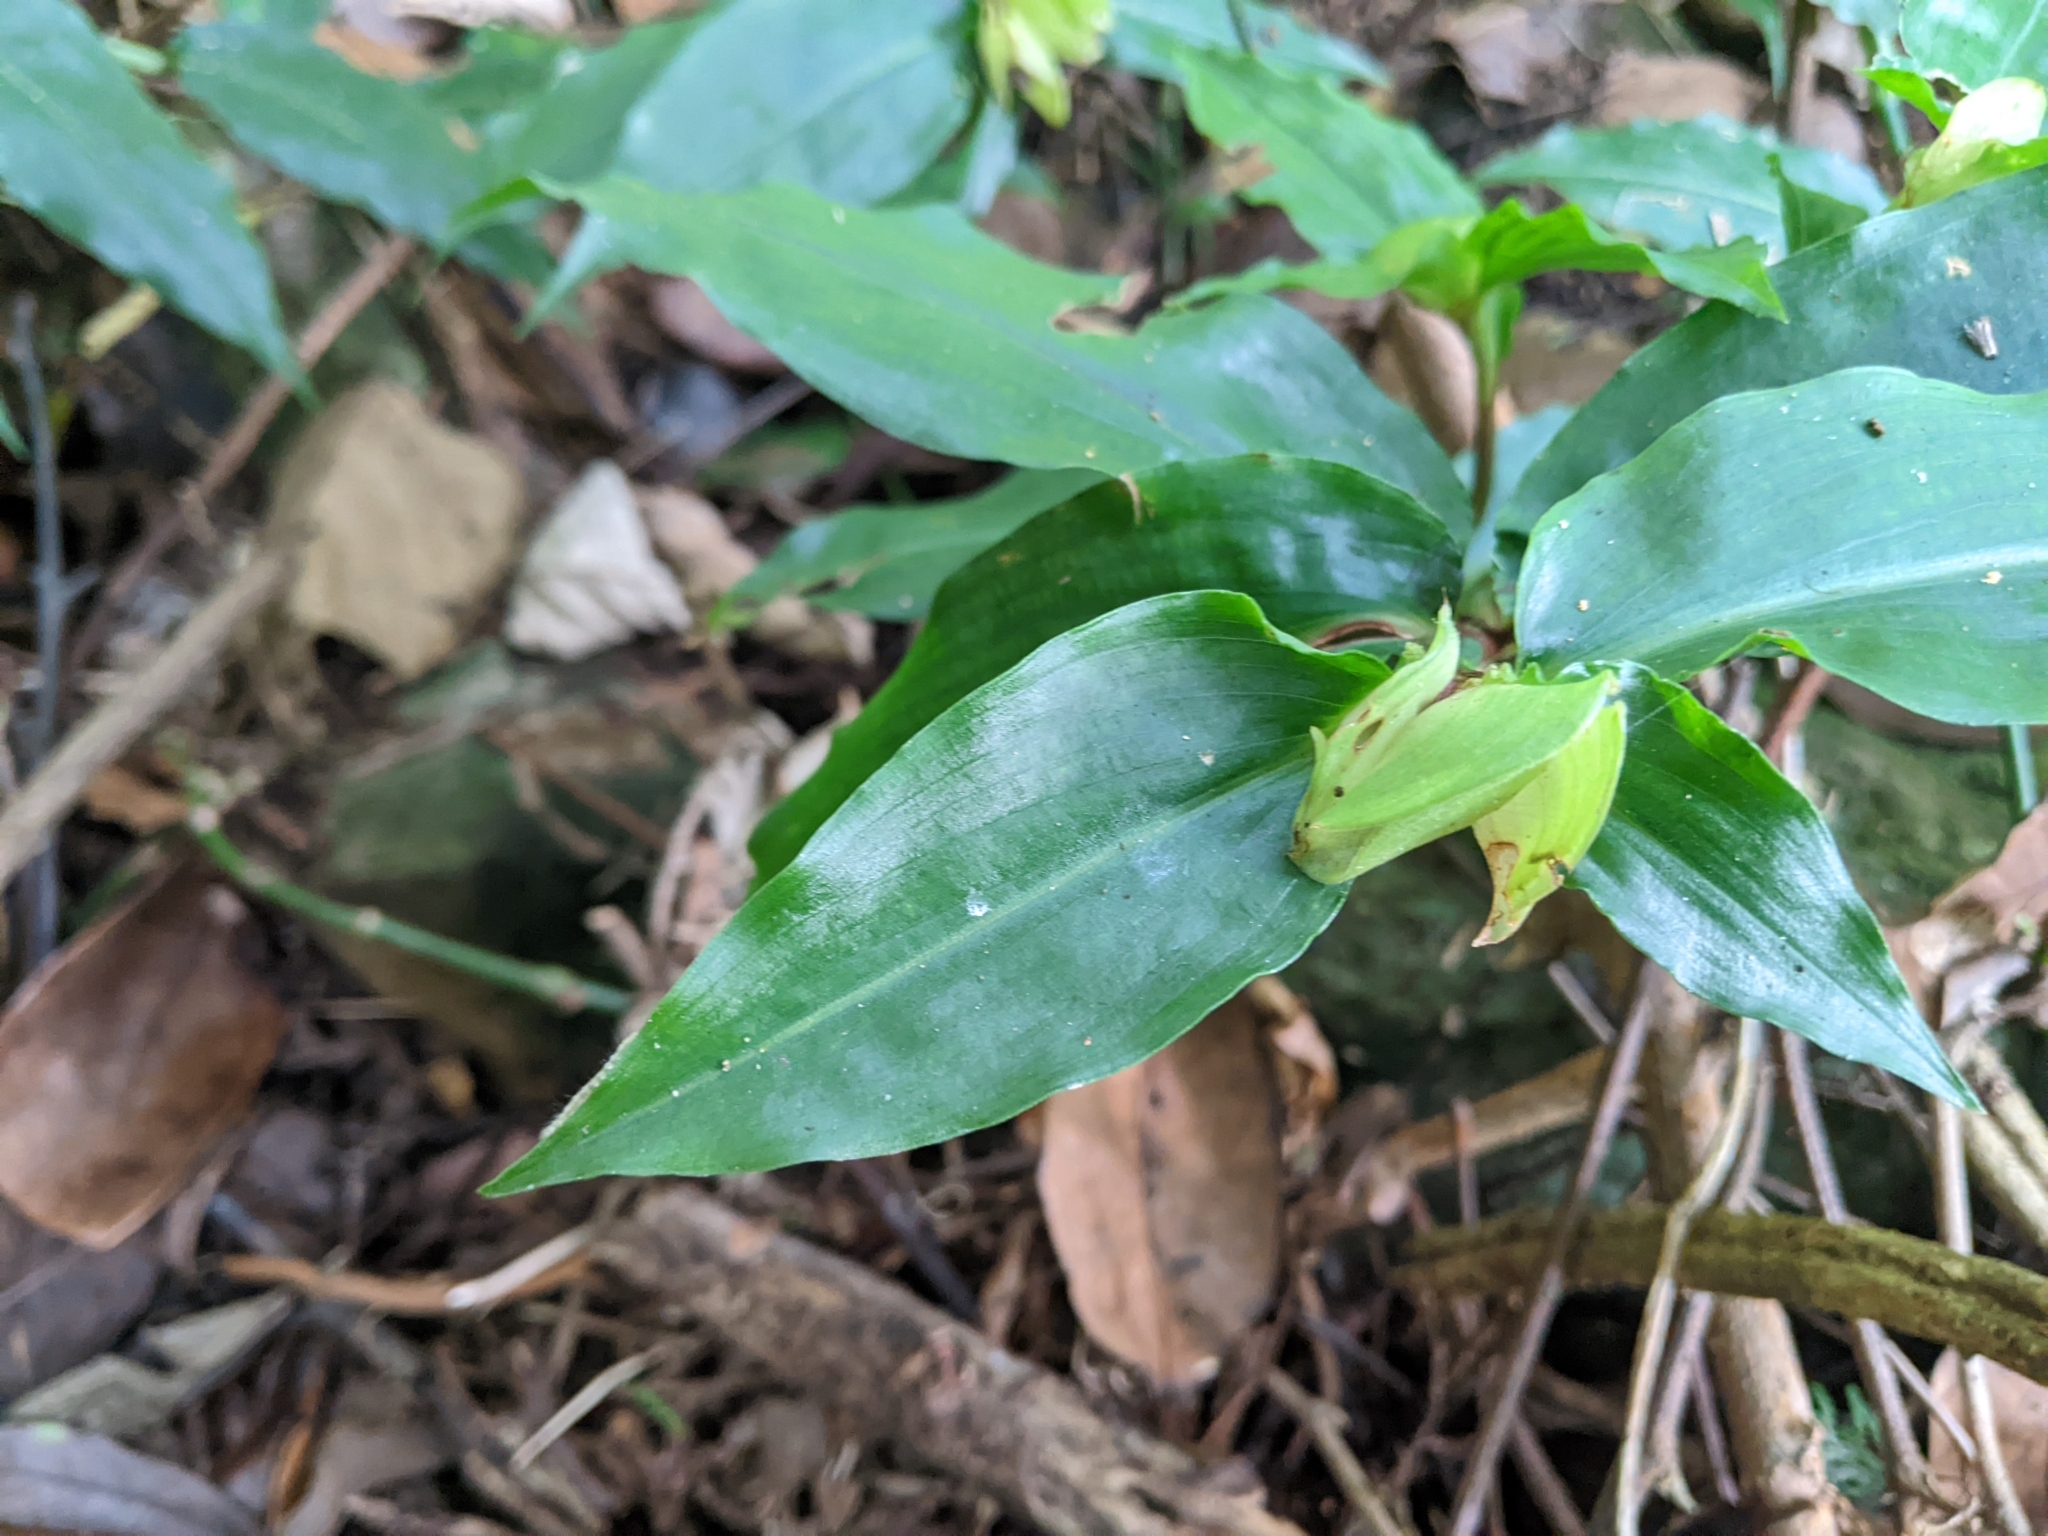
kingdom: Plantae
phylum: Tracheophyta
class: Liliopsida
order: Commelinales
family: Commelinaceae
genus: Commelina
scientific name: Commelina paludosa
